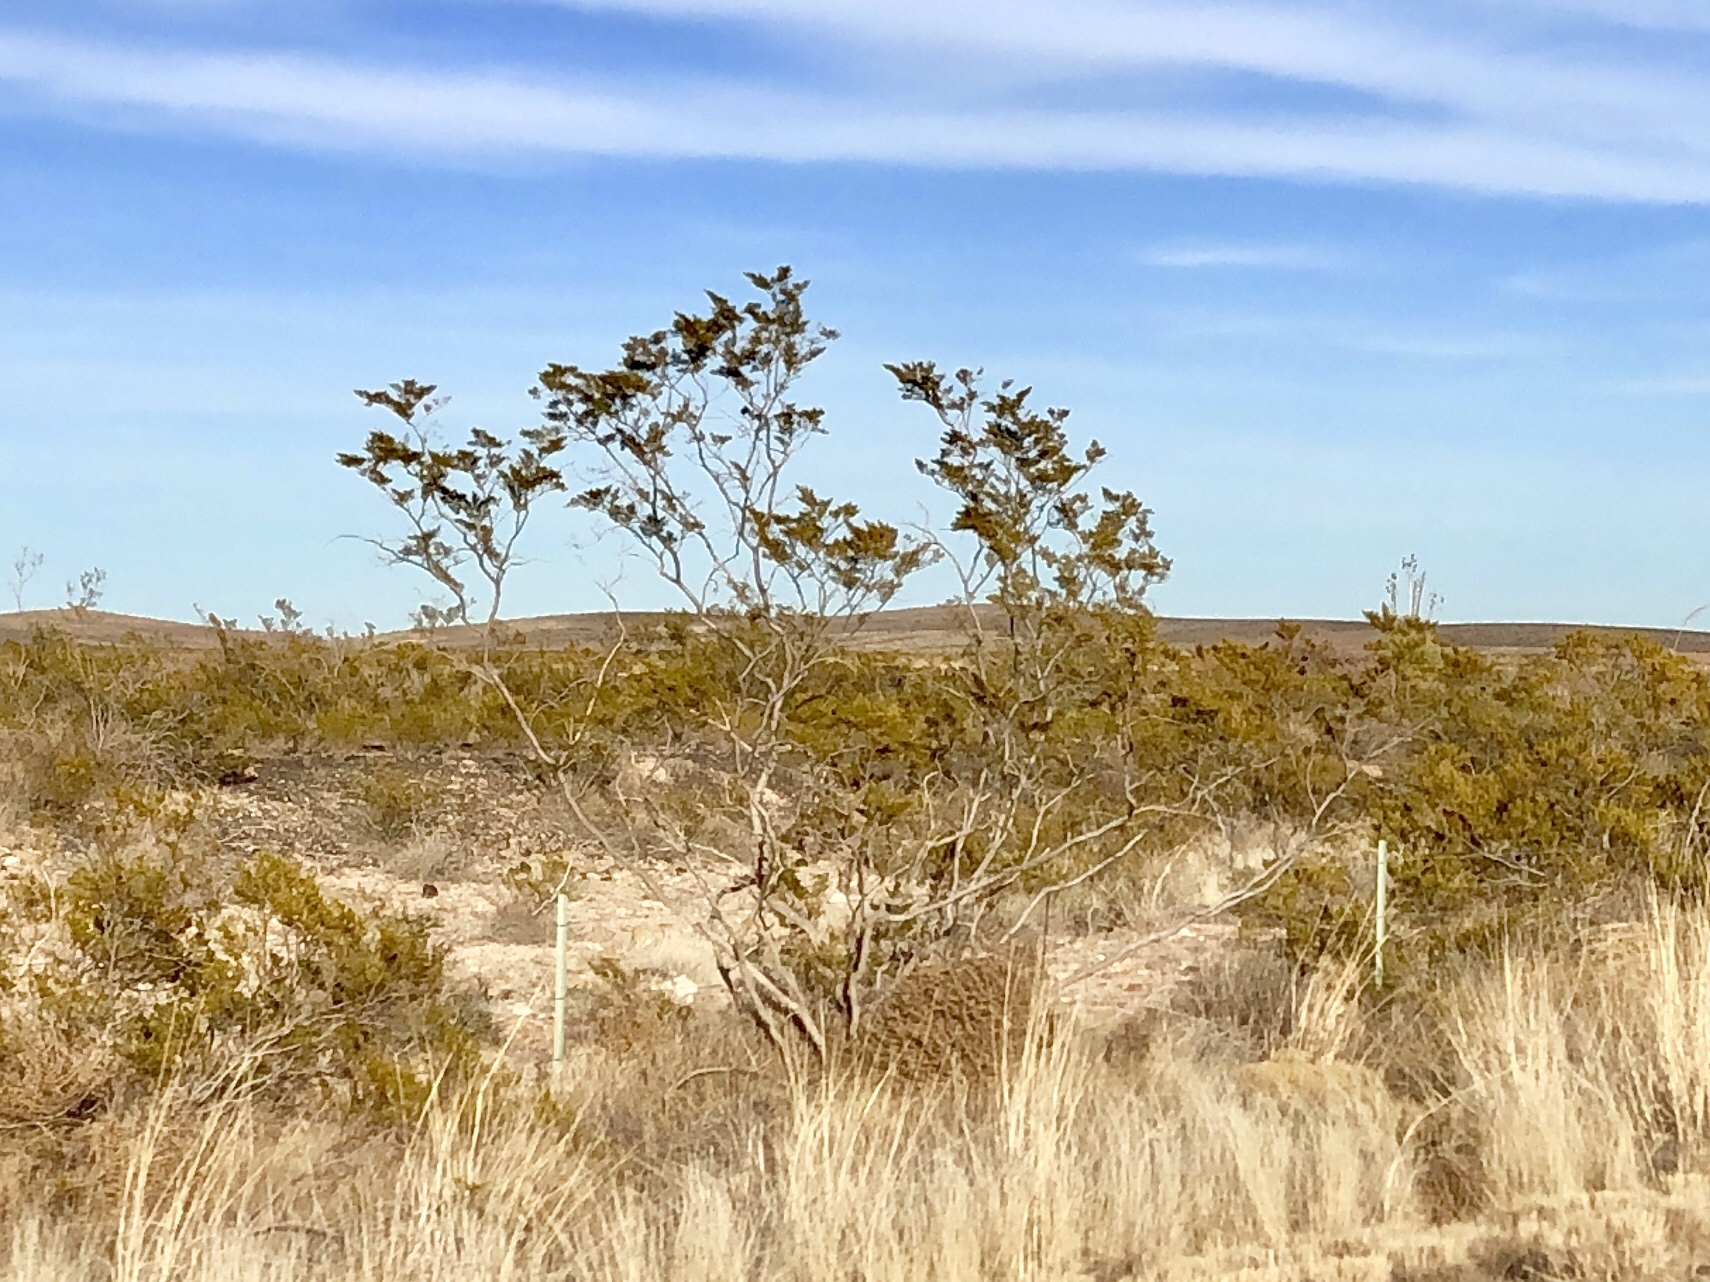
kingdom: Plantae
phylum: Tracheophyta
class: Magnoliopsida
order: Zygophyllales
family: Zygophyllaceae
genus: Larrea
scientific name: Larrea tridentata
